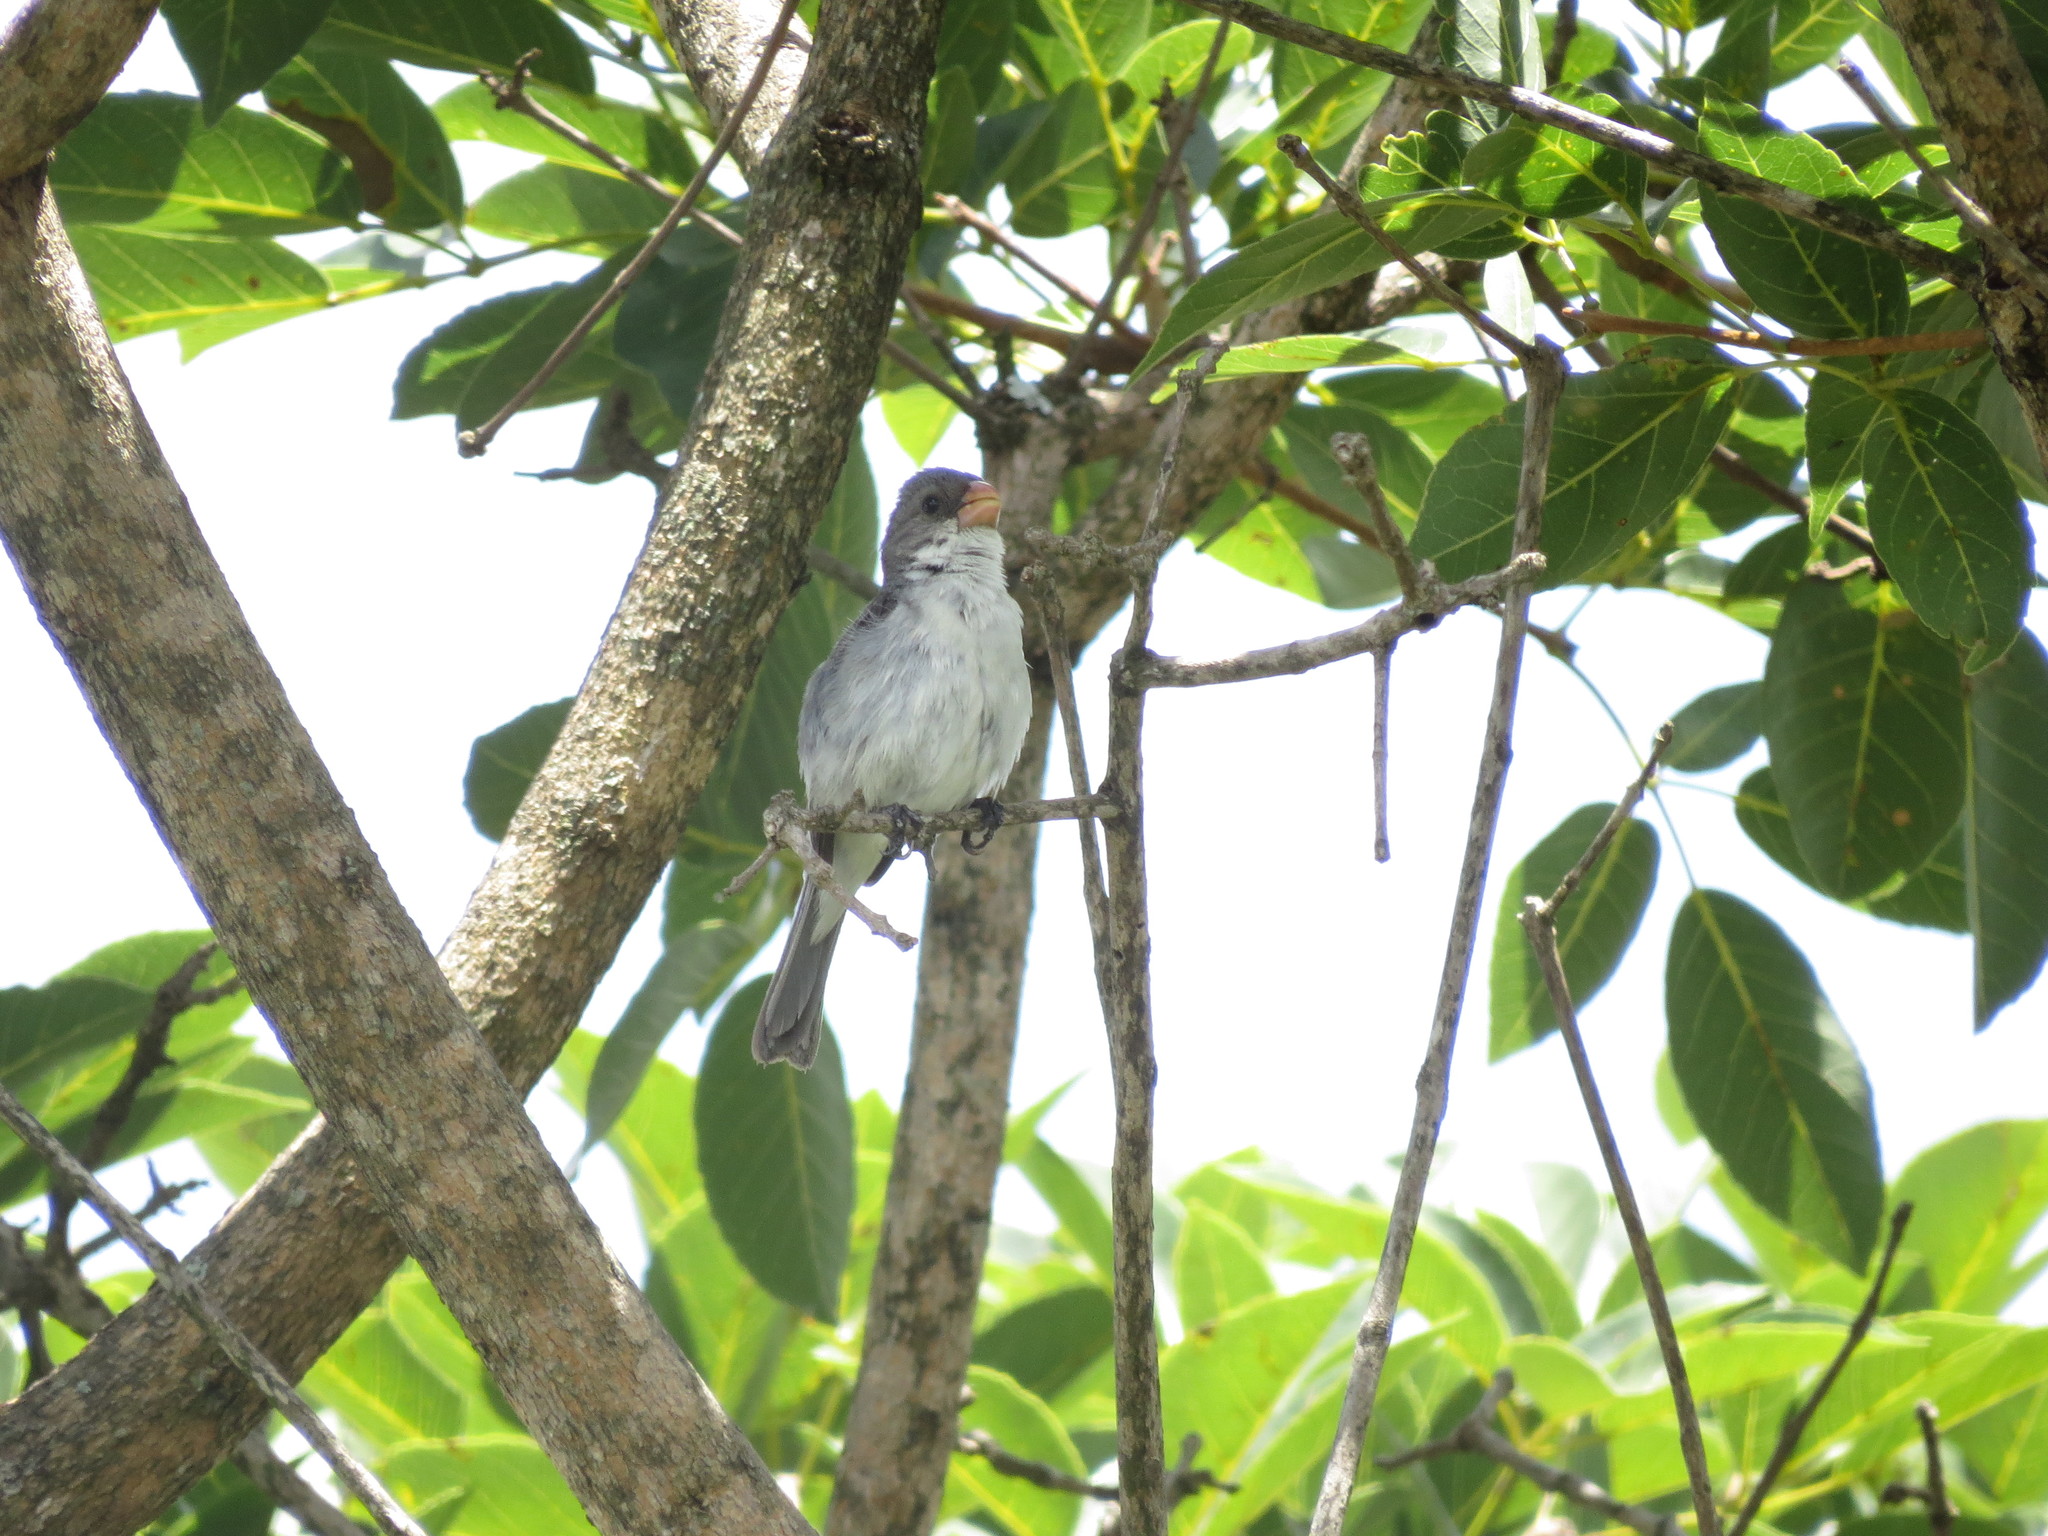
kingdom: Animalia
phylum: Chordata
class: Aves
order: Passeriformes
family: Thraupidae
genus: Sporophila
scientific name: Sporophila leucoptera
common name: White-bellied seedeater
